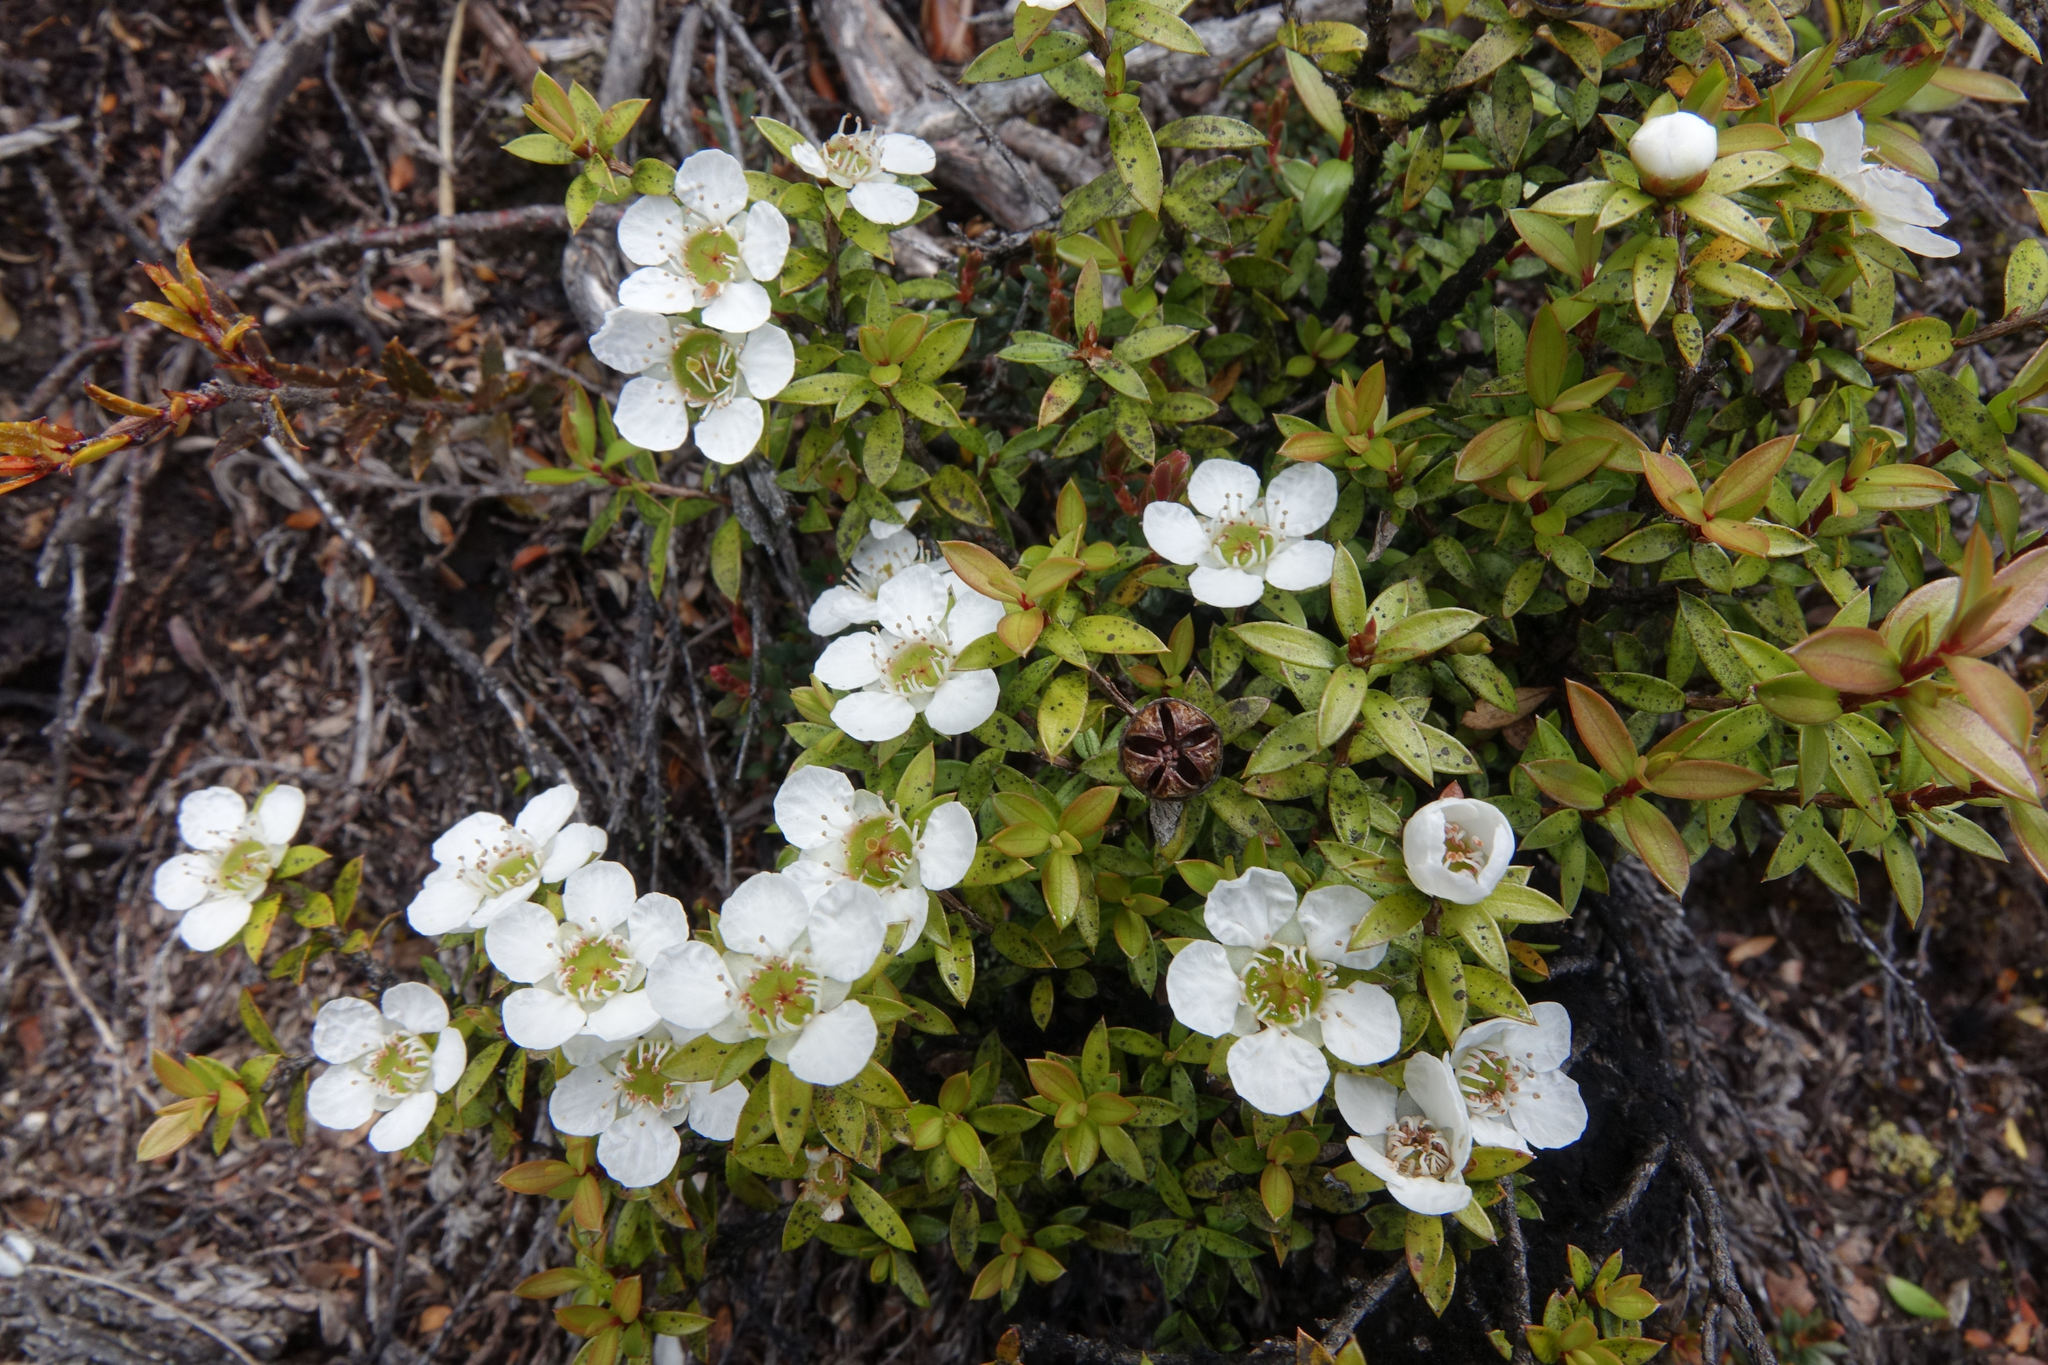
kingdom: Plantae
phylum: Tracheophyta
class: Magnoliopsida
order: Myrtales
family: Myrtaceae
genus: Leptospermum
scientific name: Leptospermum scoparium
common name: Broom tea-tree
